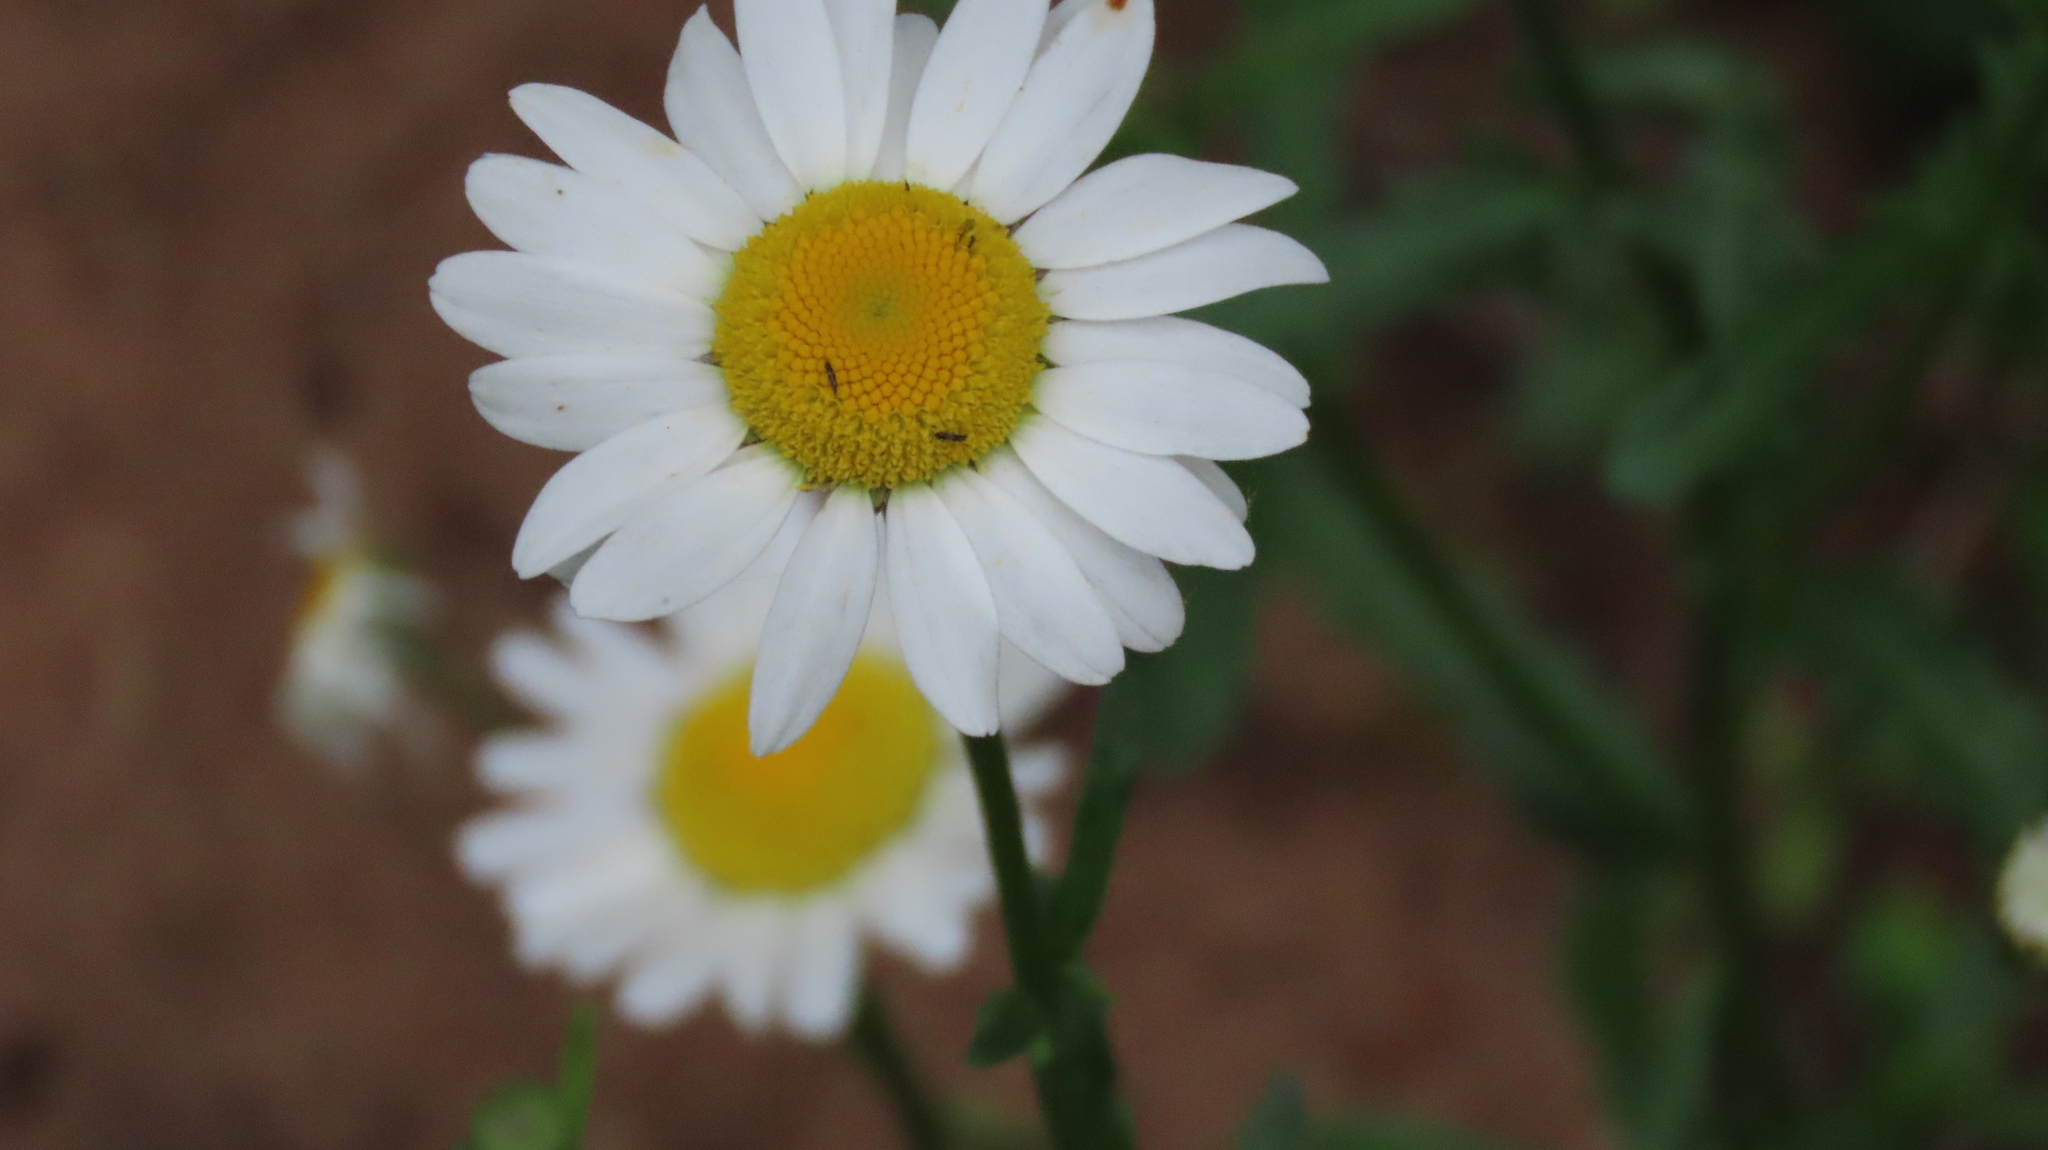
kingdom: Plantae
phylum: Tracheophyta
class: Magnoliopsida
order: Asterales
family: Asteraceae
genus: Leucanthemum
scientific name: Leucanthemum vulgare
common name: Oxeye daisy
